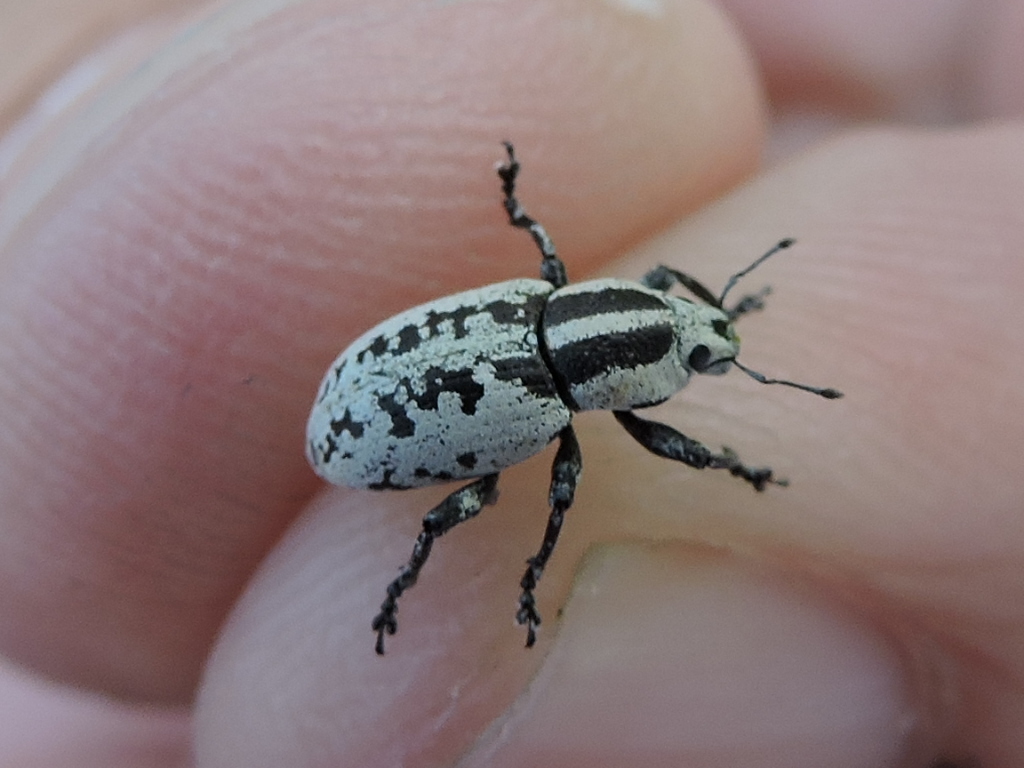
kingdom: Animalia
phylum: Arthropoda
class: Insecta
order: Coleoptera
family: Curculionidae
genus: Eudiagogus
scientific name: Eudiagogus rosenschoeldi
